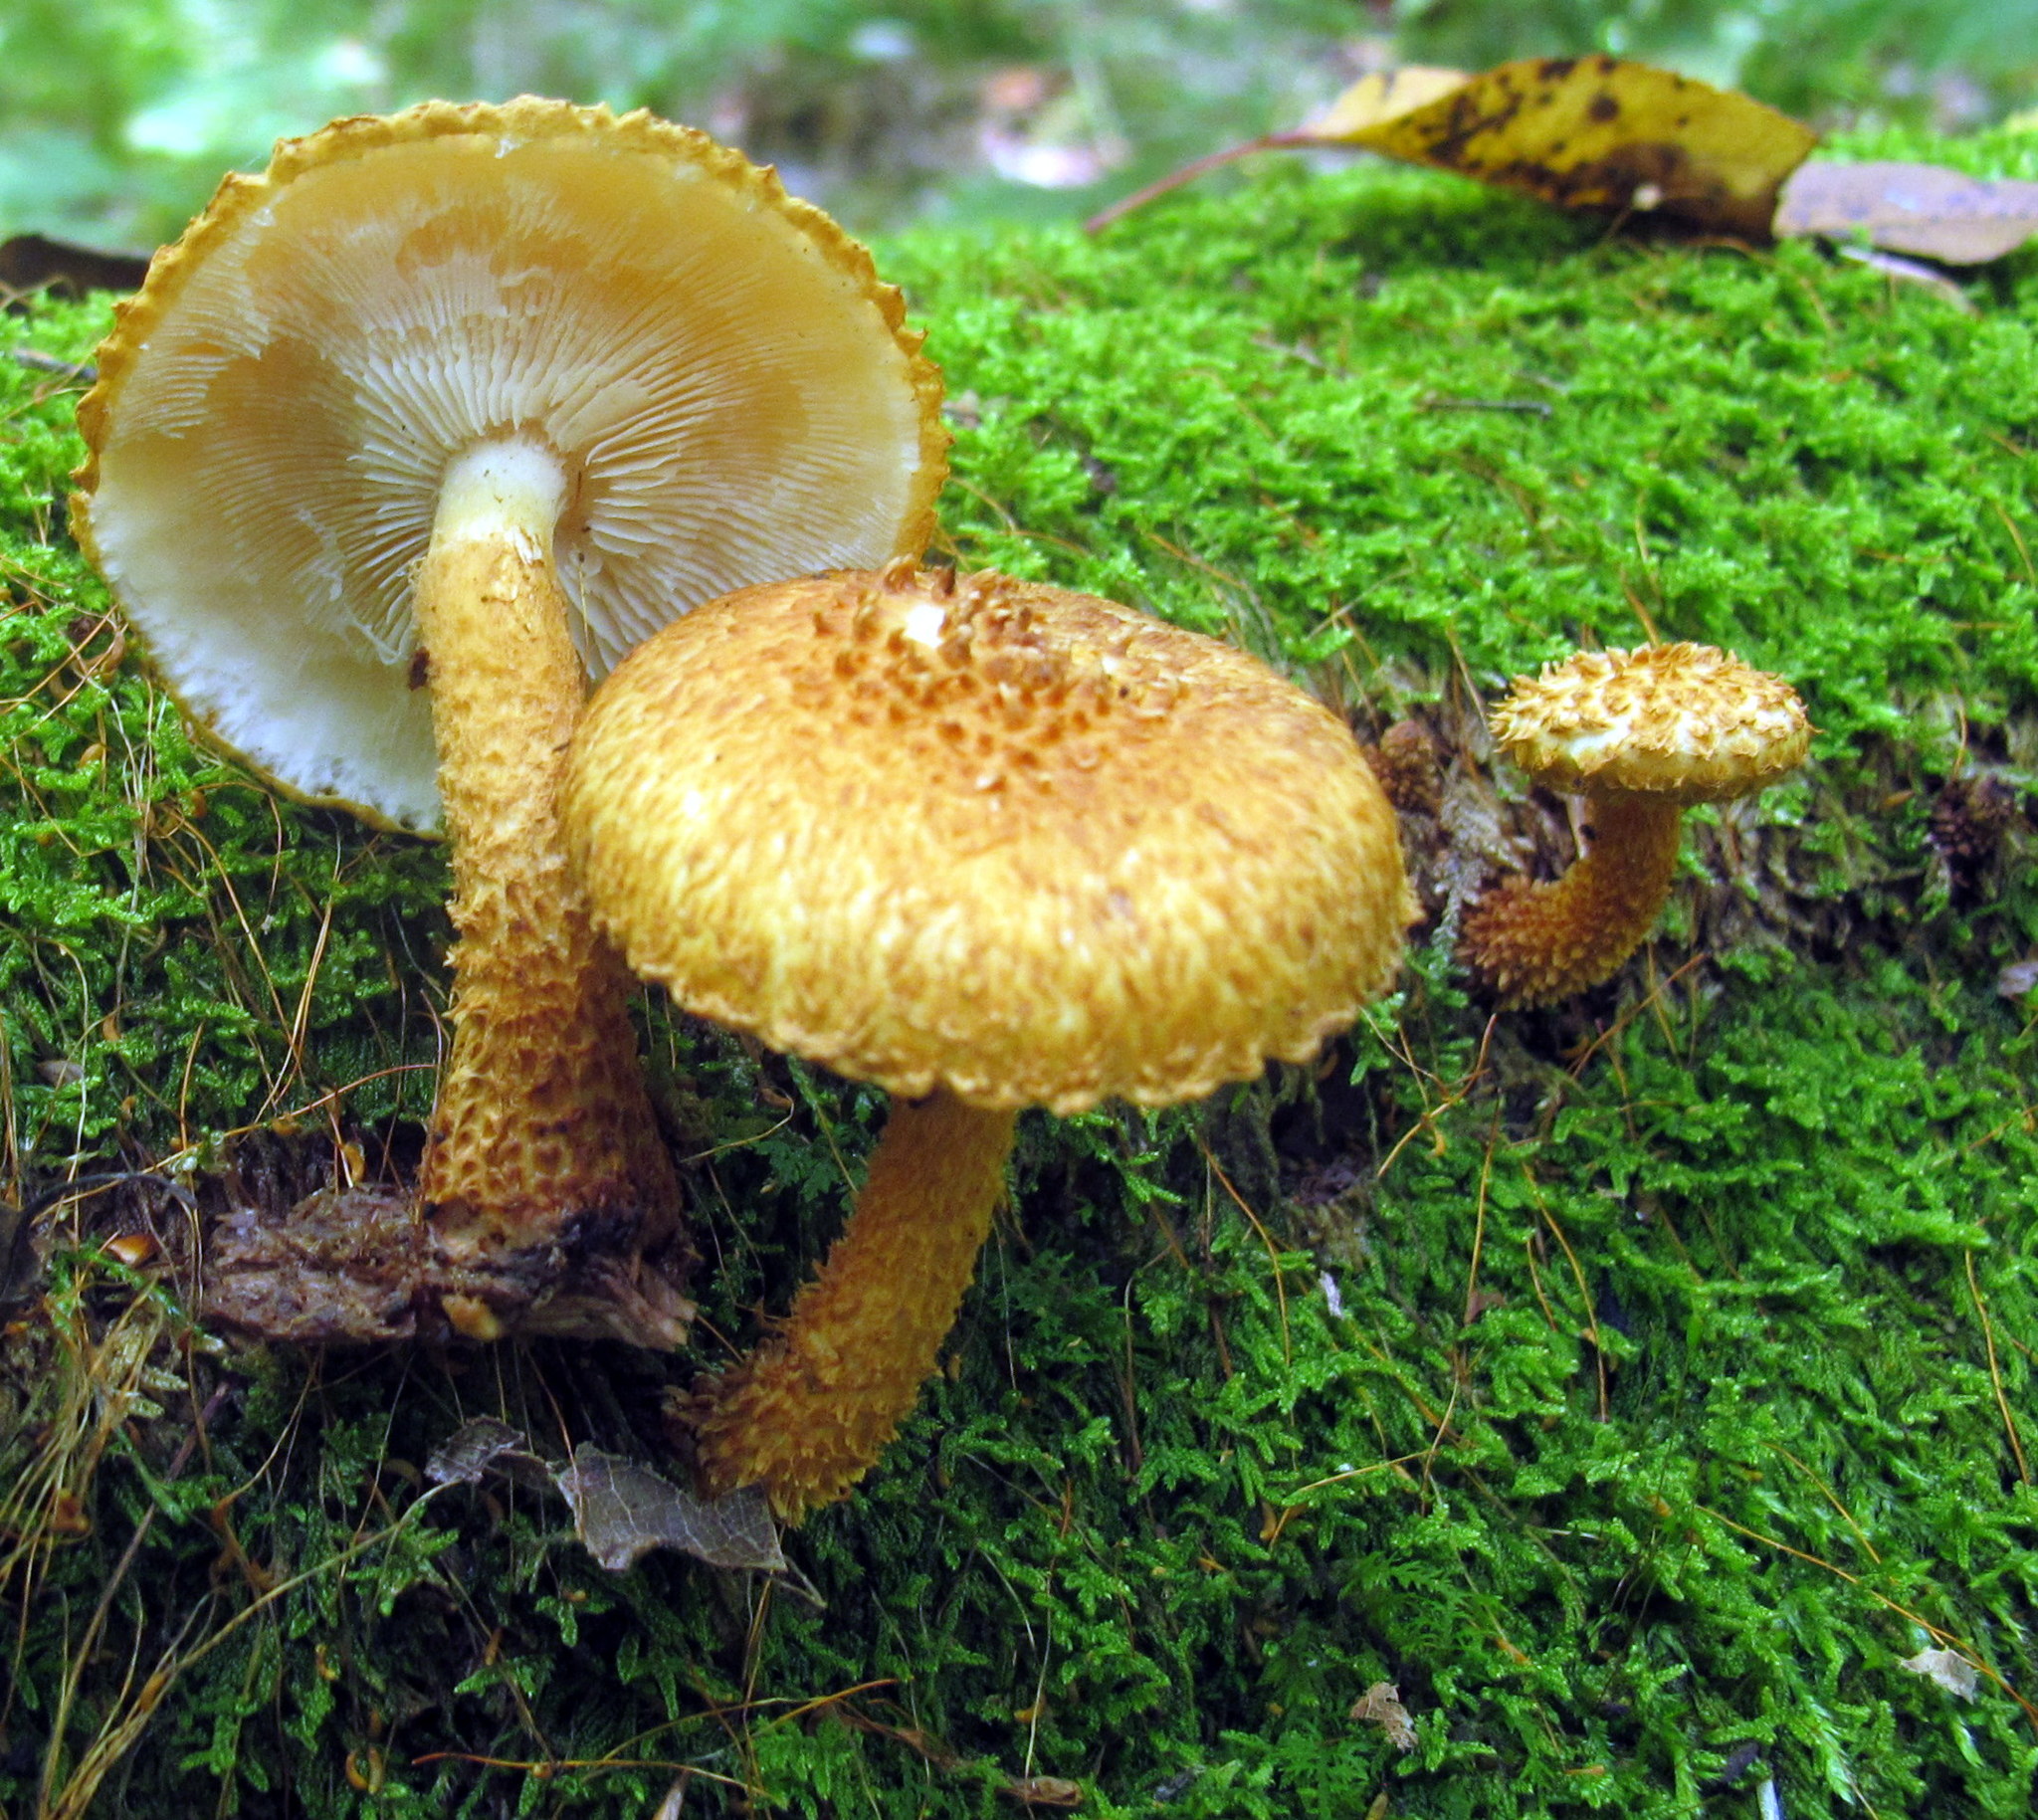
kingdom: Fungi
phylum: Basidiomycota
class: Agaricomycetes
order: Agaricales
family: Agaricaceae
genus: Leucopholiota
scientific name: Leucopholiota decorosa
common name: Decorated pholiota
